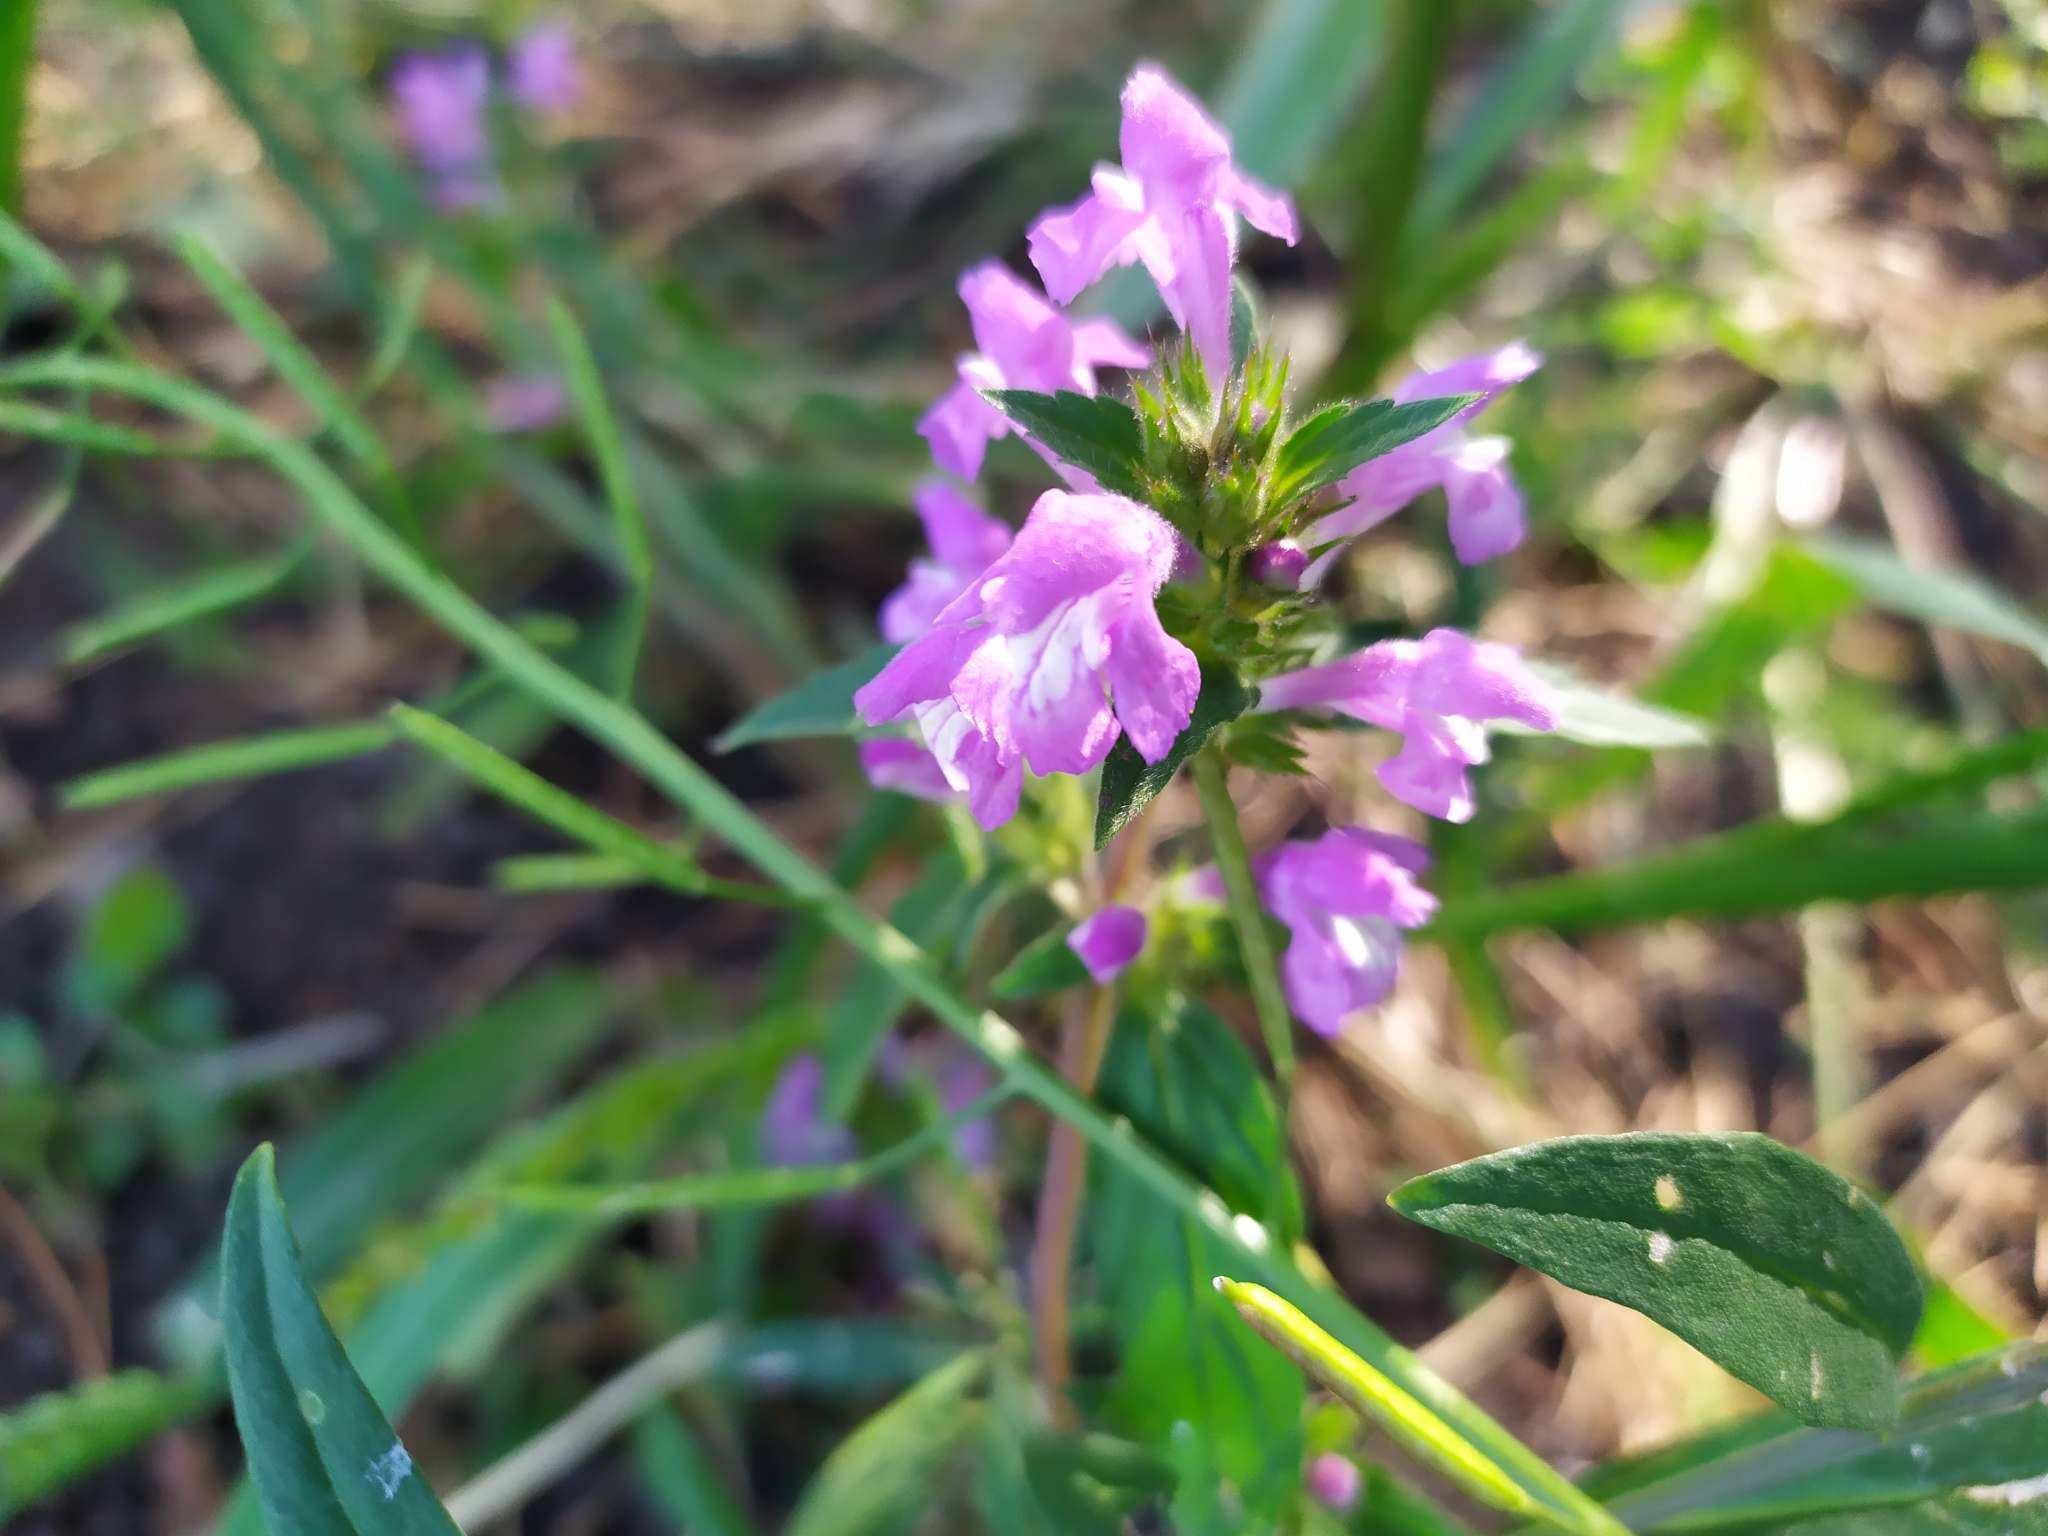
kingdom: Plantae
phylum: Tracheophyta
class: Magnoliopsida
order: Lamiales
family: Lamiaceae
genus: Galeopsis
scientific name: Galeopsis ladanum
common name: Broad-leaved hemp-nettle
